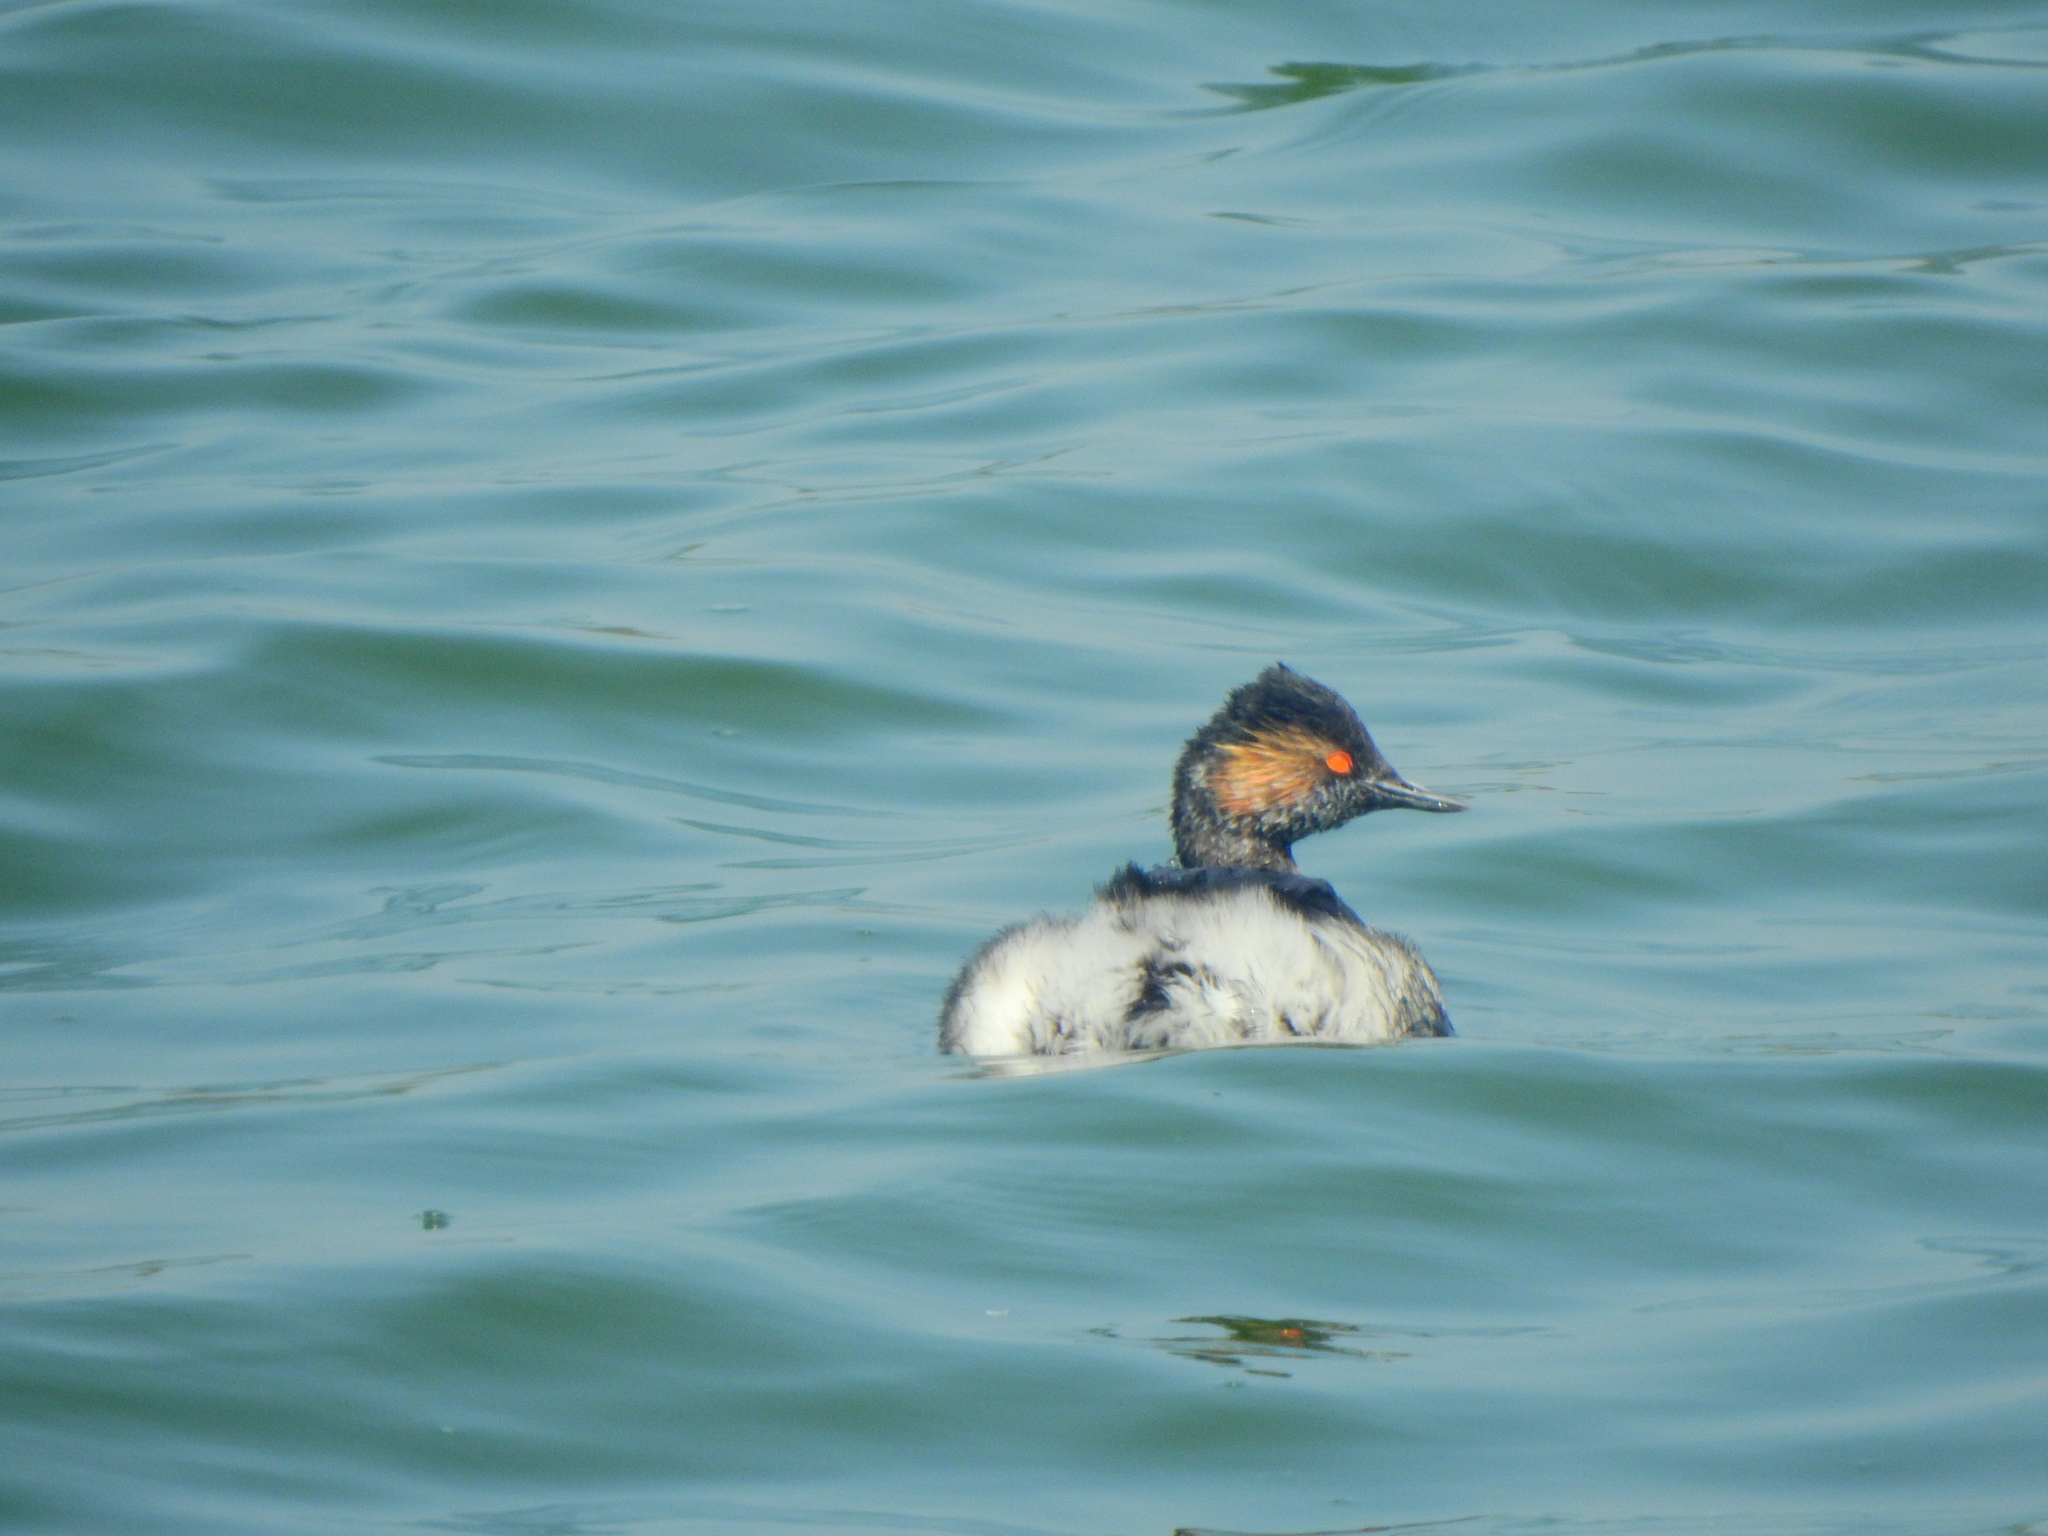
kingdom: Animalia
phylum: Chordata
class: Aves
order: Podicipediformes
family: Podicipedidae
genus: Podiceps
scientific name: Podiceps nigricollis
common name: Black-necked grebe
